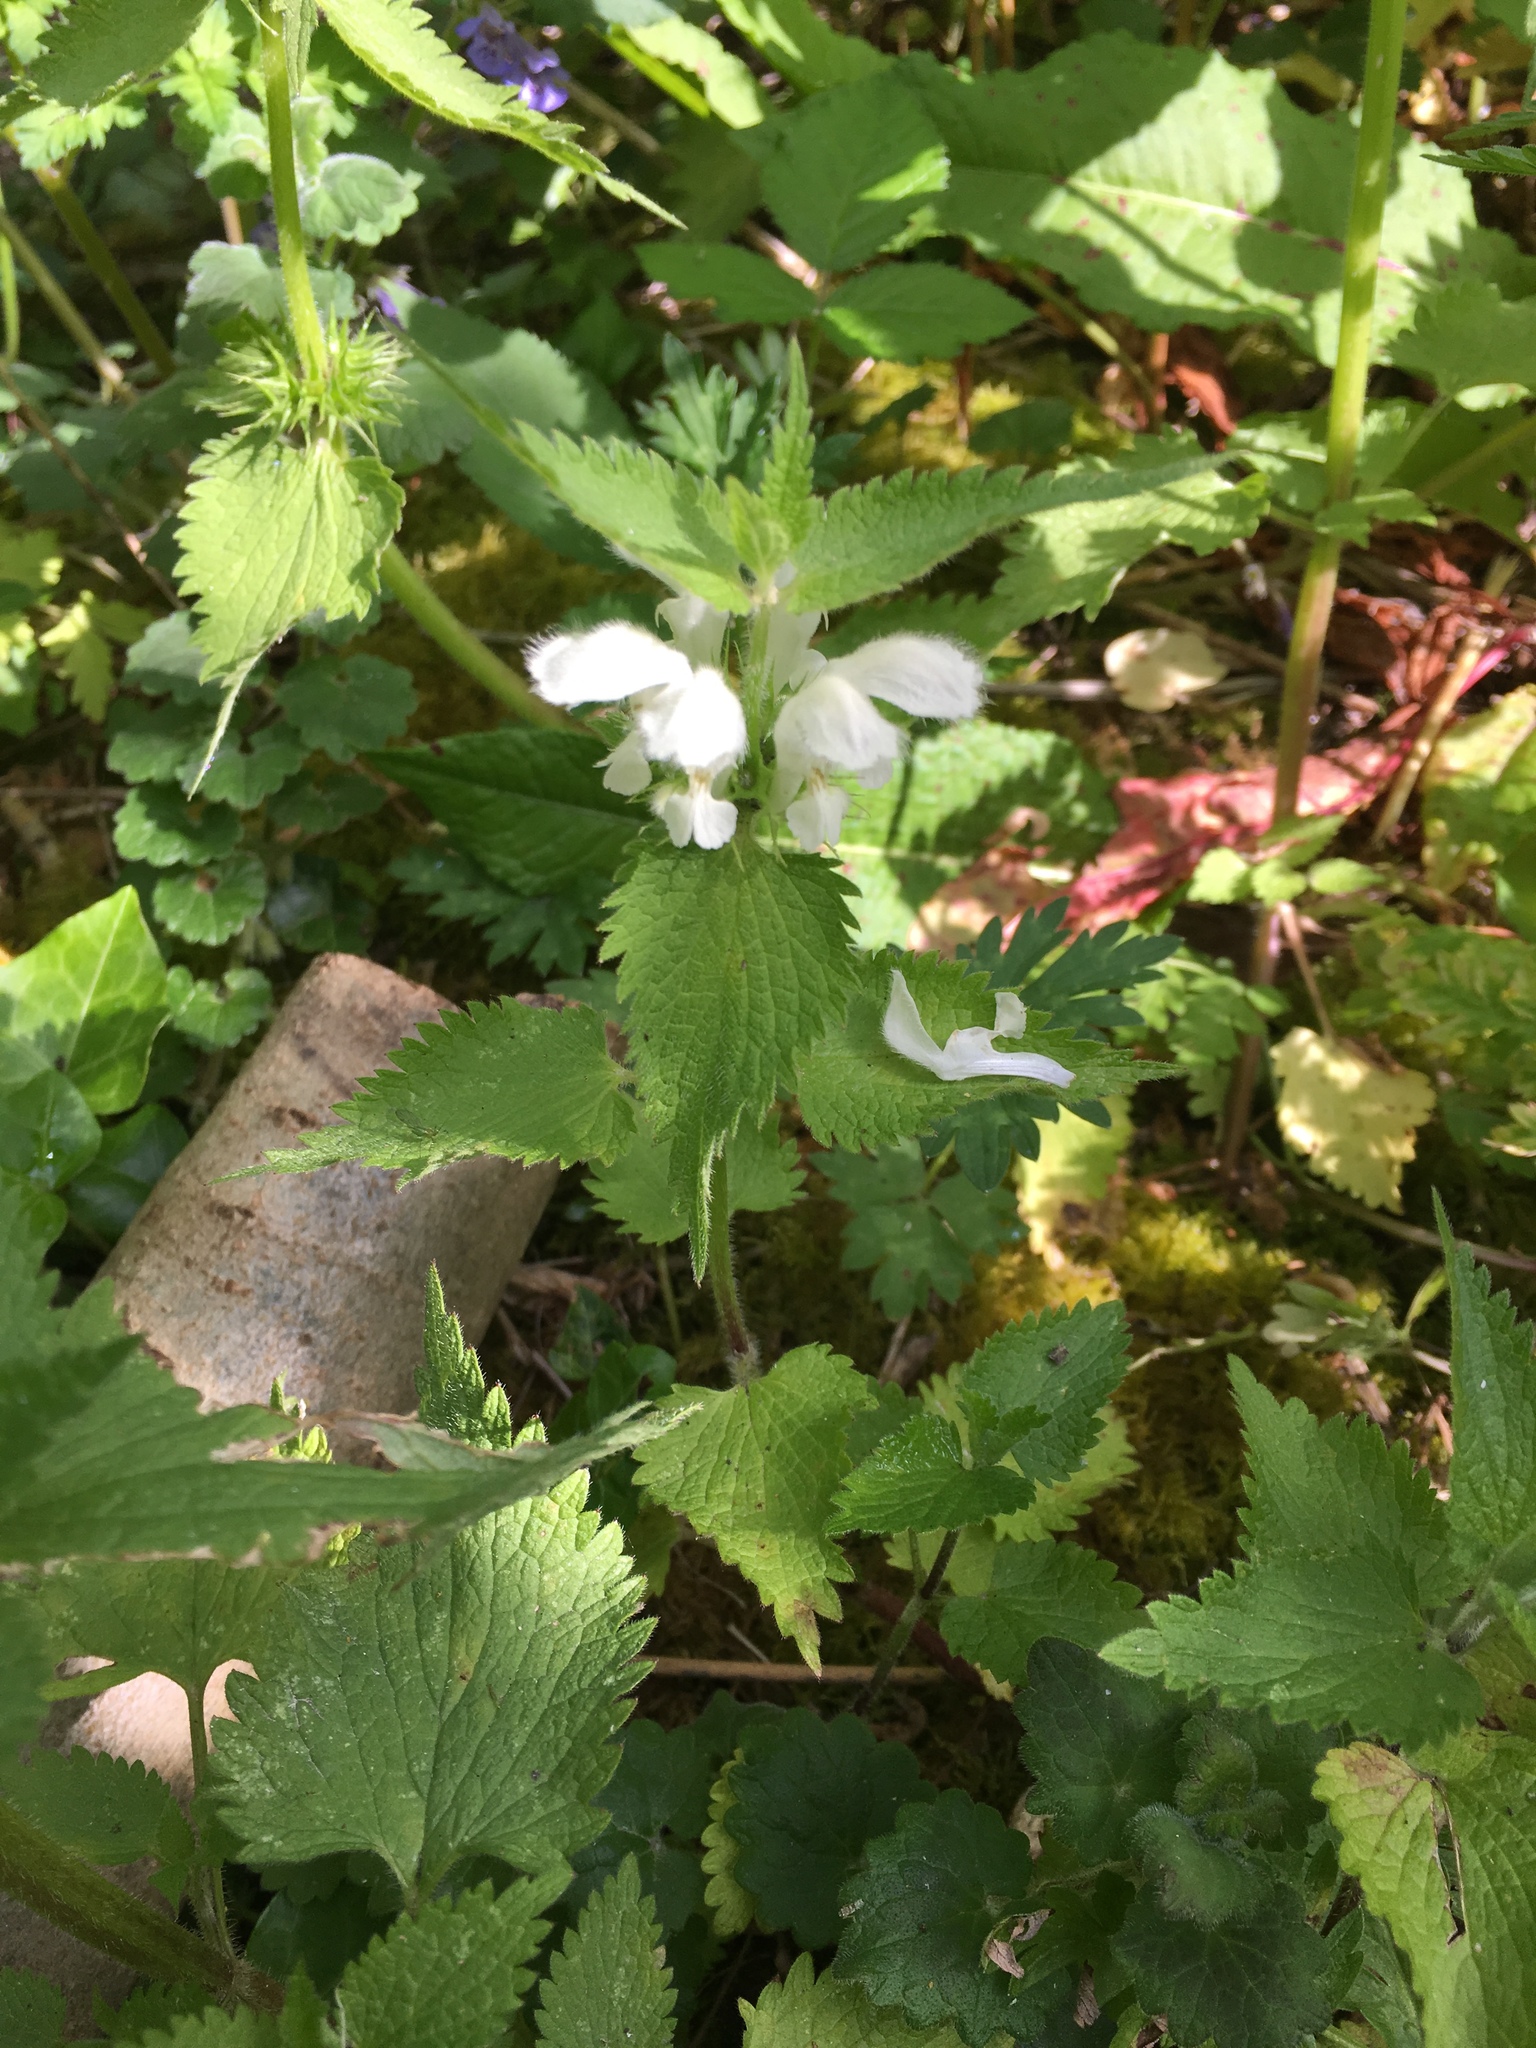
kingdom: Plantae
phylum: Tracheophyta
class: Magnoliopsida
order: Lamiales
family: Lamiaceae
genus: Lamium
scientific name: Lamium album
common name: White dead-nettle
